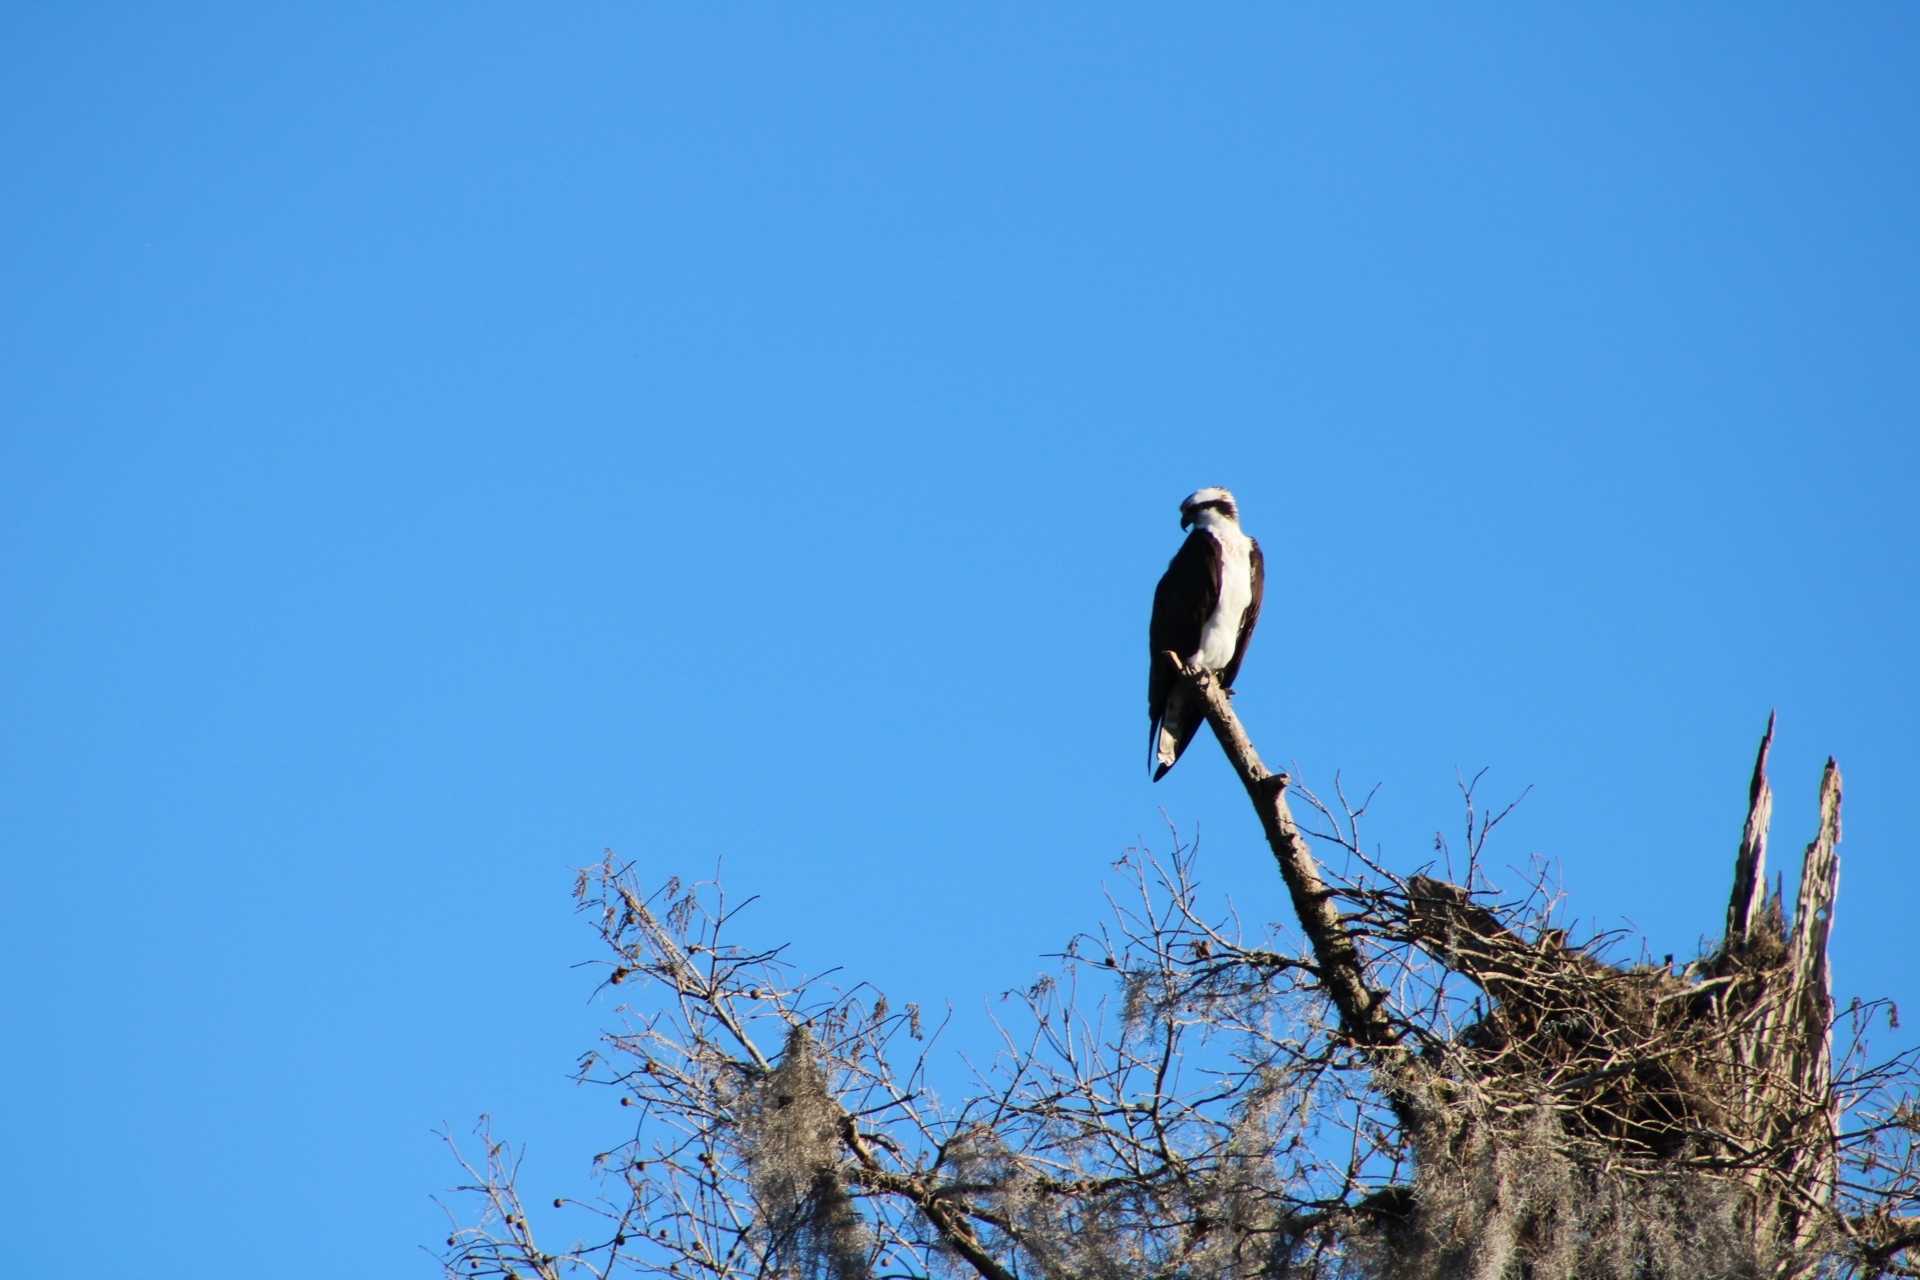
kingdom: Animalia
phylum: Chordata
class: Aves
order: Accipitriformes
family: Pandionidae
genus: Pandion
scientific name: Pandion haliaetus
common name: Osprey
